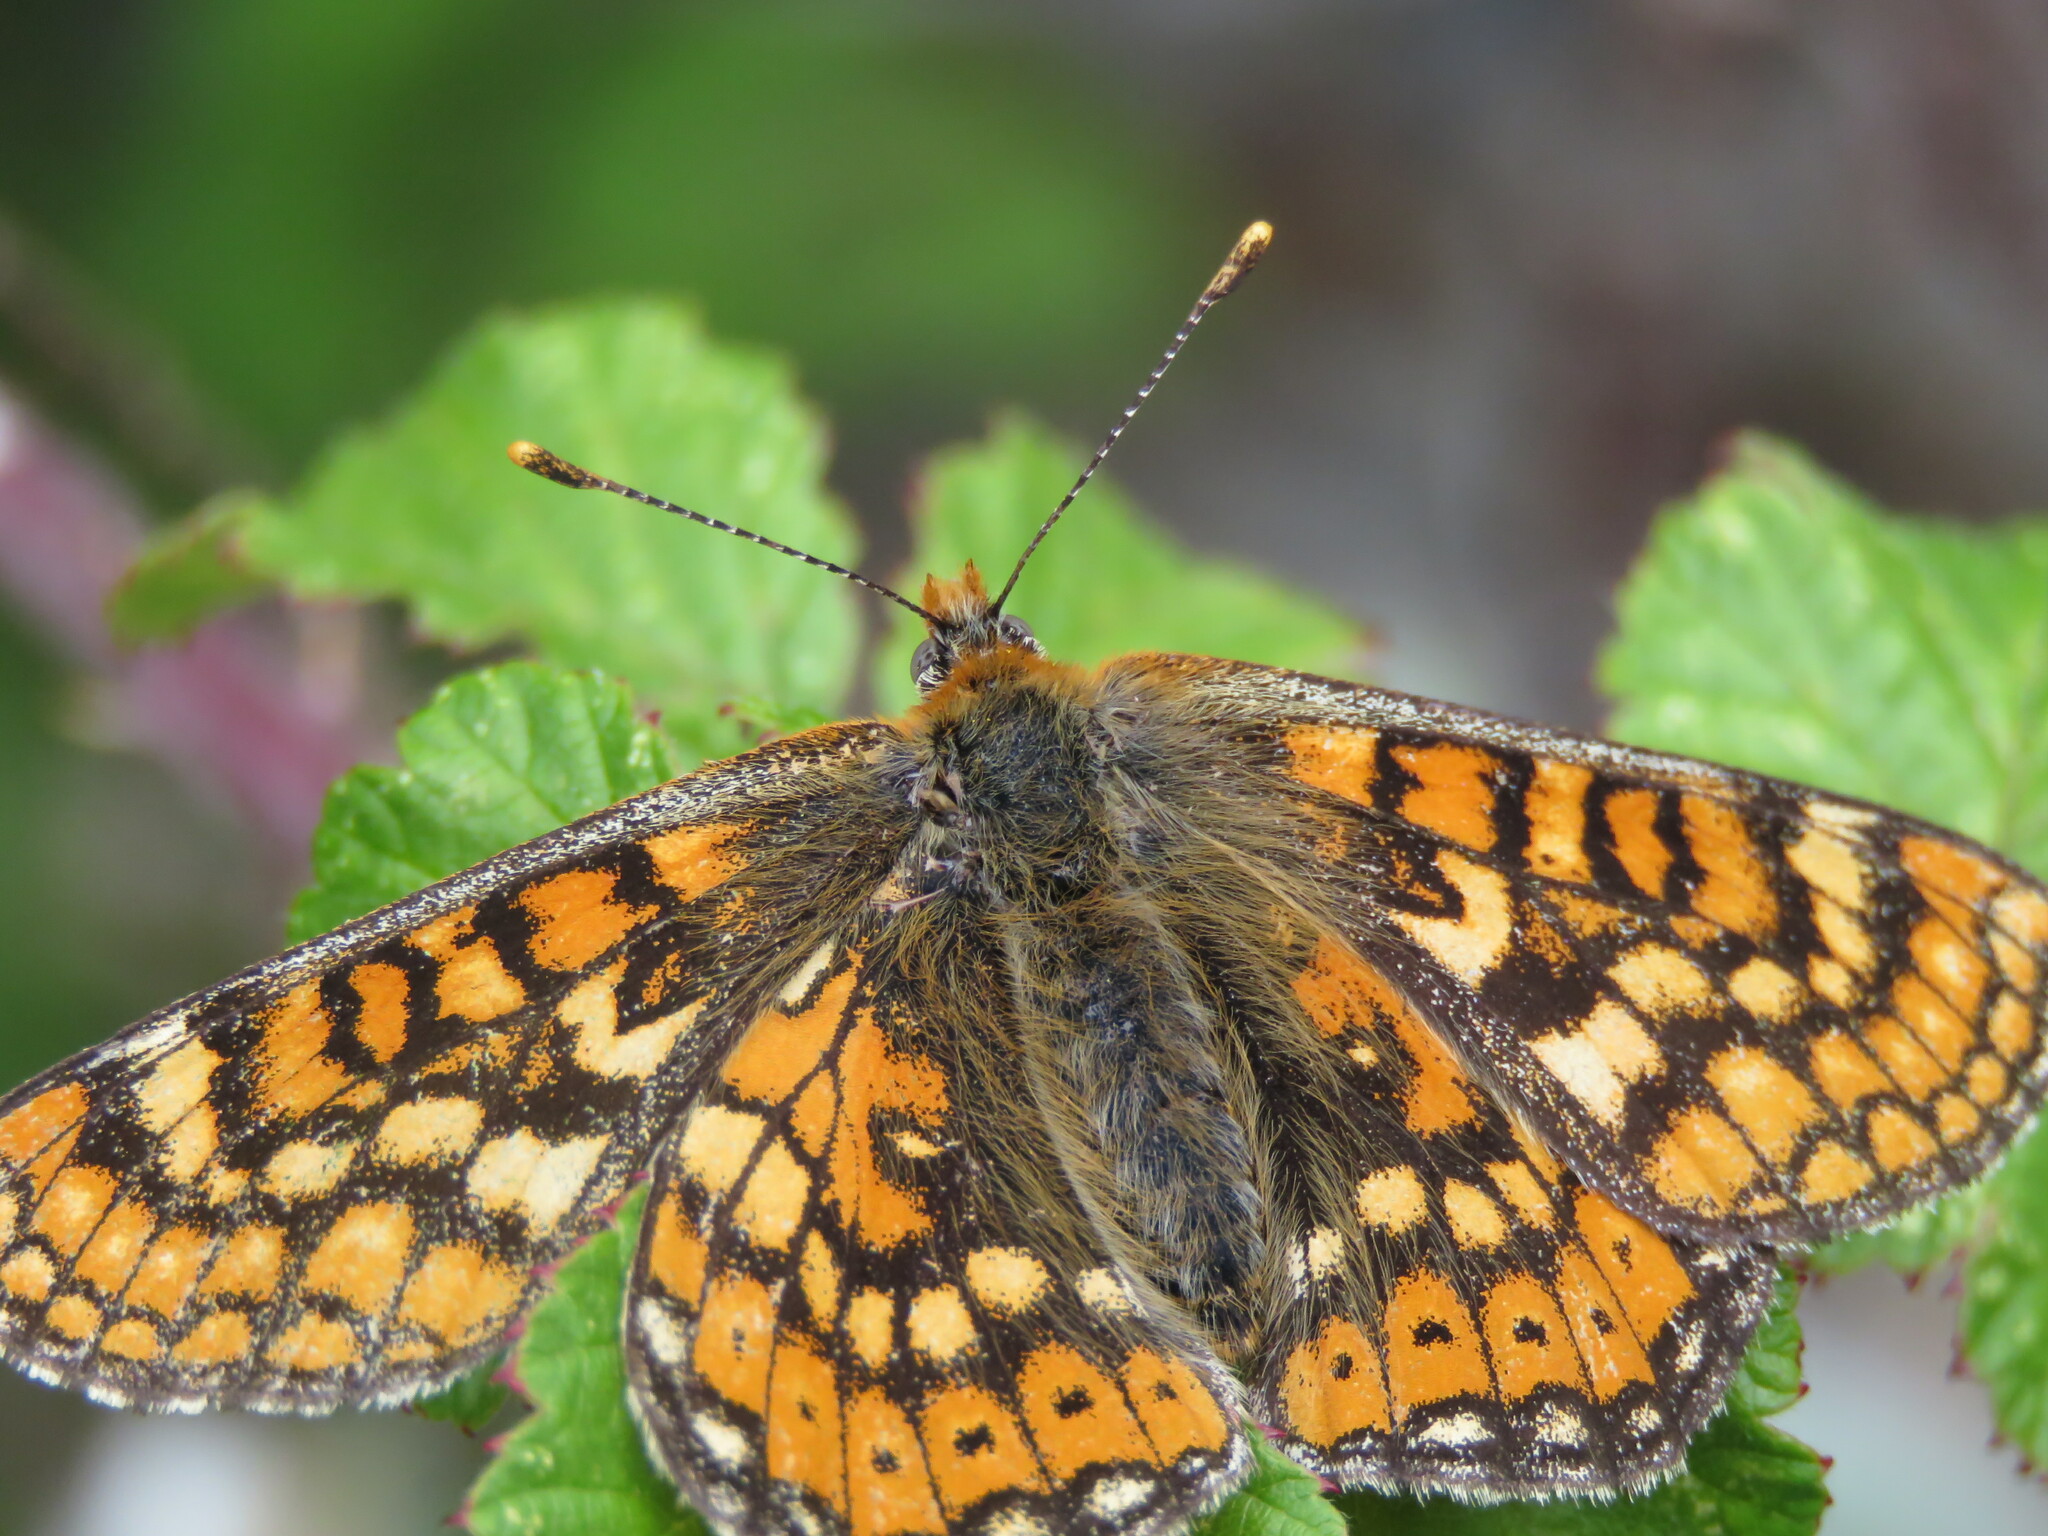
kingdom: Animalia
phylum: Arthropoda
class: Insecta
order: Lepidoptera
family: Nymphalidae
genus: Euphydryas
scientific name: Euphydryas aurinia
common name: Marsh fritillary
